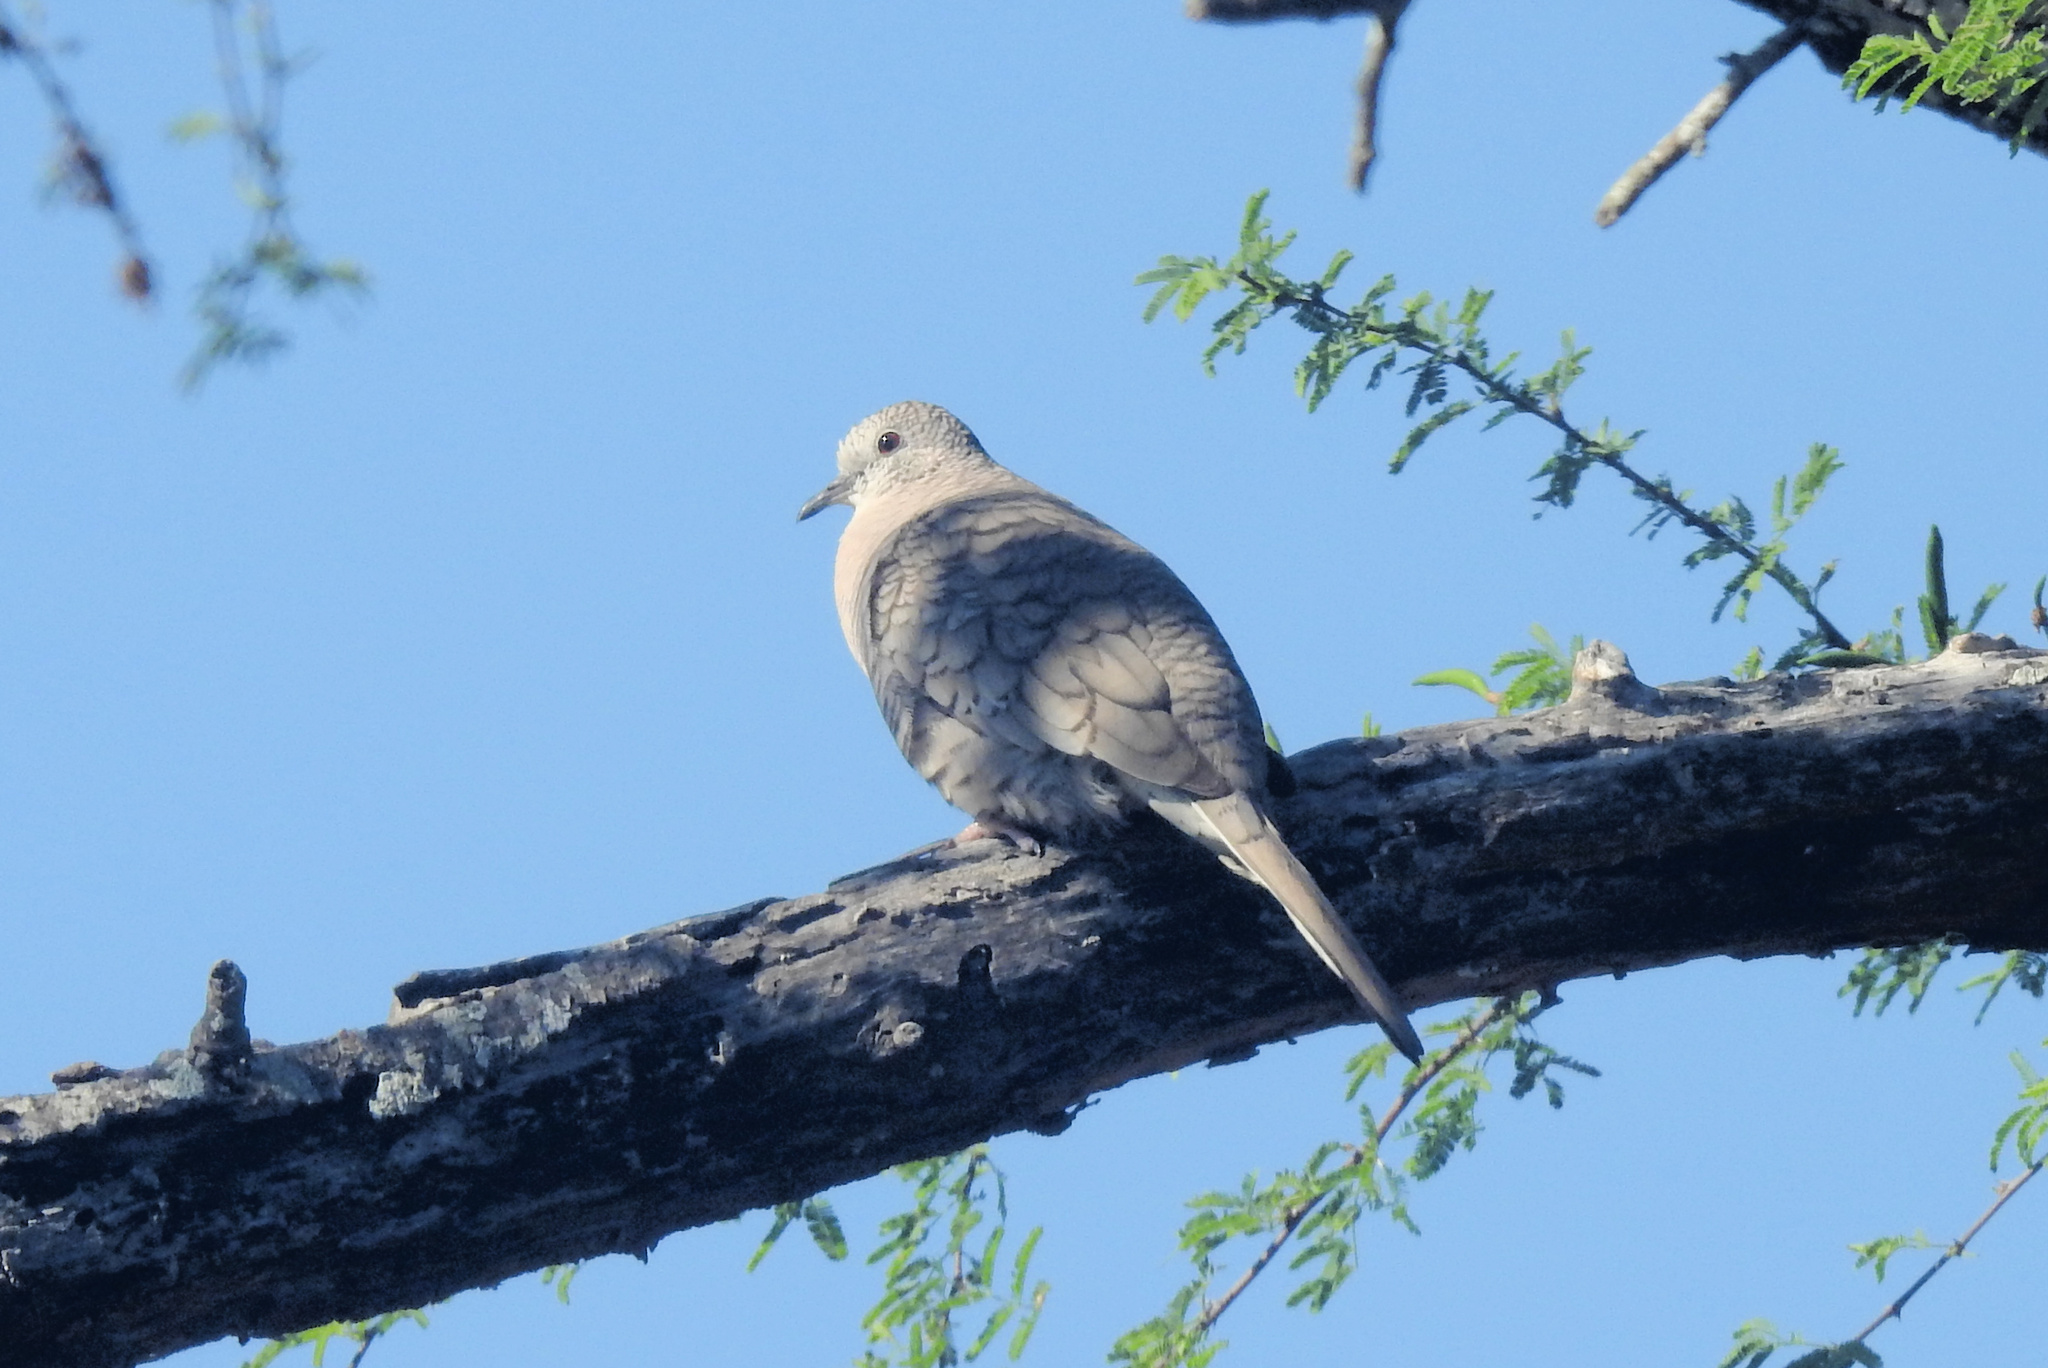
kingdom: Animalia
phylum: Chordata
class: Aves
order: Columbiformes
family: Columbidae
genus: Columbina
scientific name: Columbina inca
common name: Inca dove
